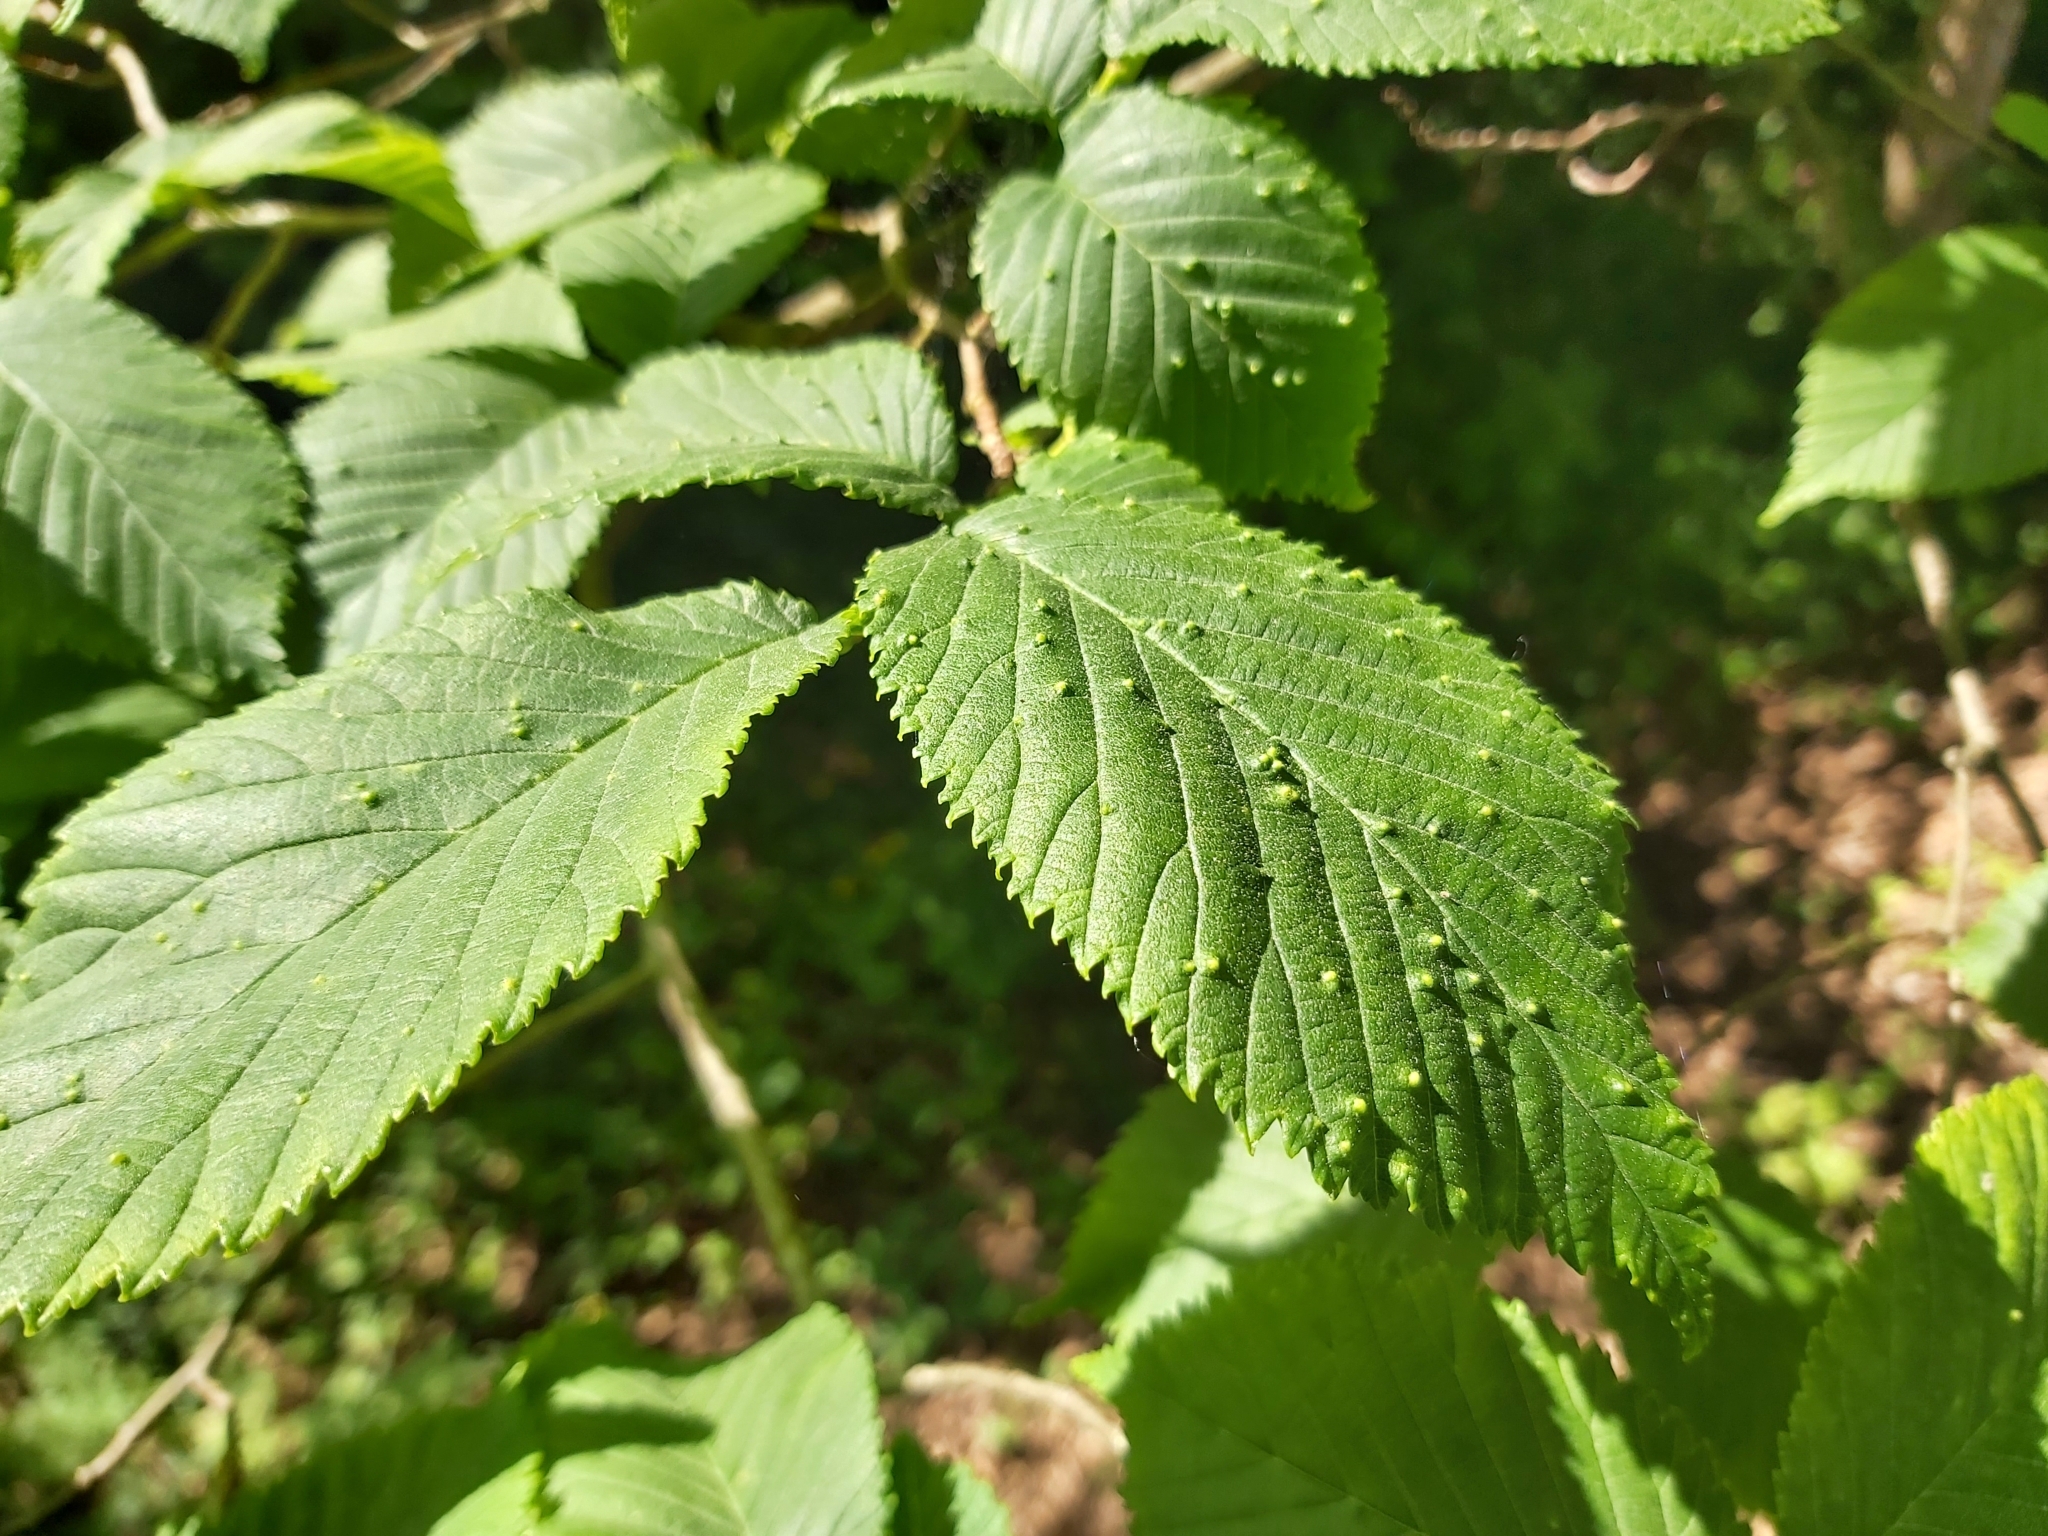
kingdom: Animalia
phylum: Arthropoda
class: Arachnida
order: Trombidiformes
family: Eriophyidae
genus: Aceria
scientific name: Aceria brevipunctata
